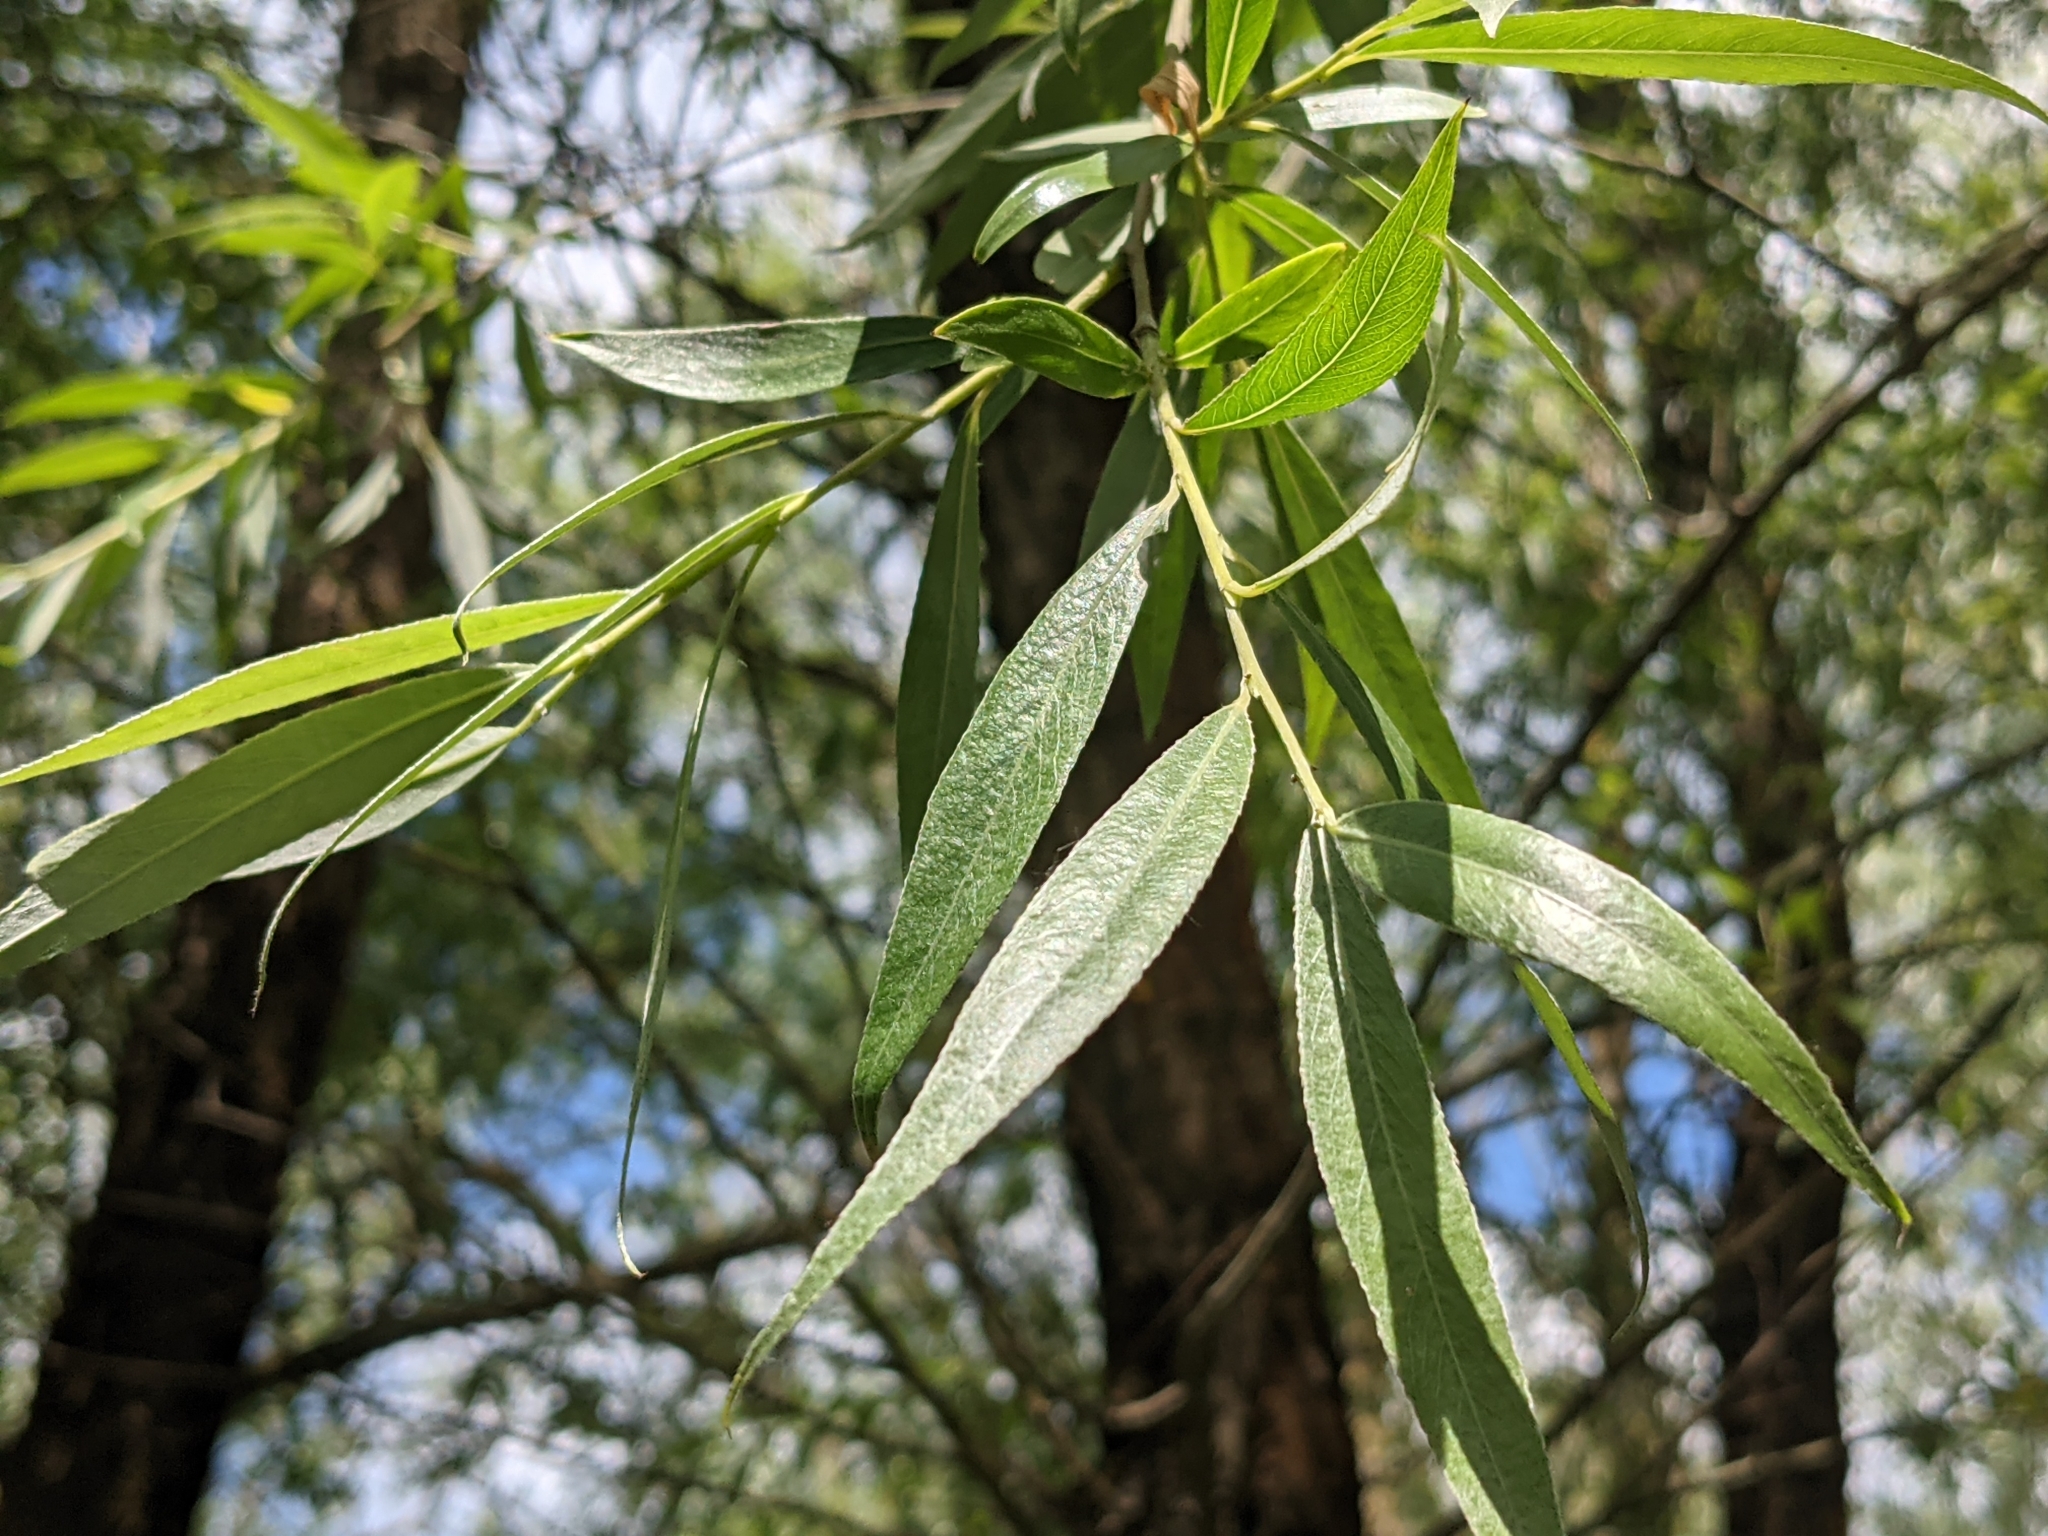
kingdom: Plantae
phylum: Tracheophyta
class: Magnoliopsida
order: Malpighiales
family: Salicaceae
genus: Salix
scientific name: Salix alba
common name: White willow
